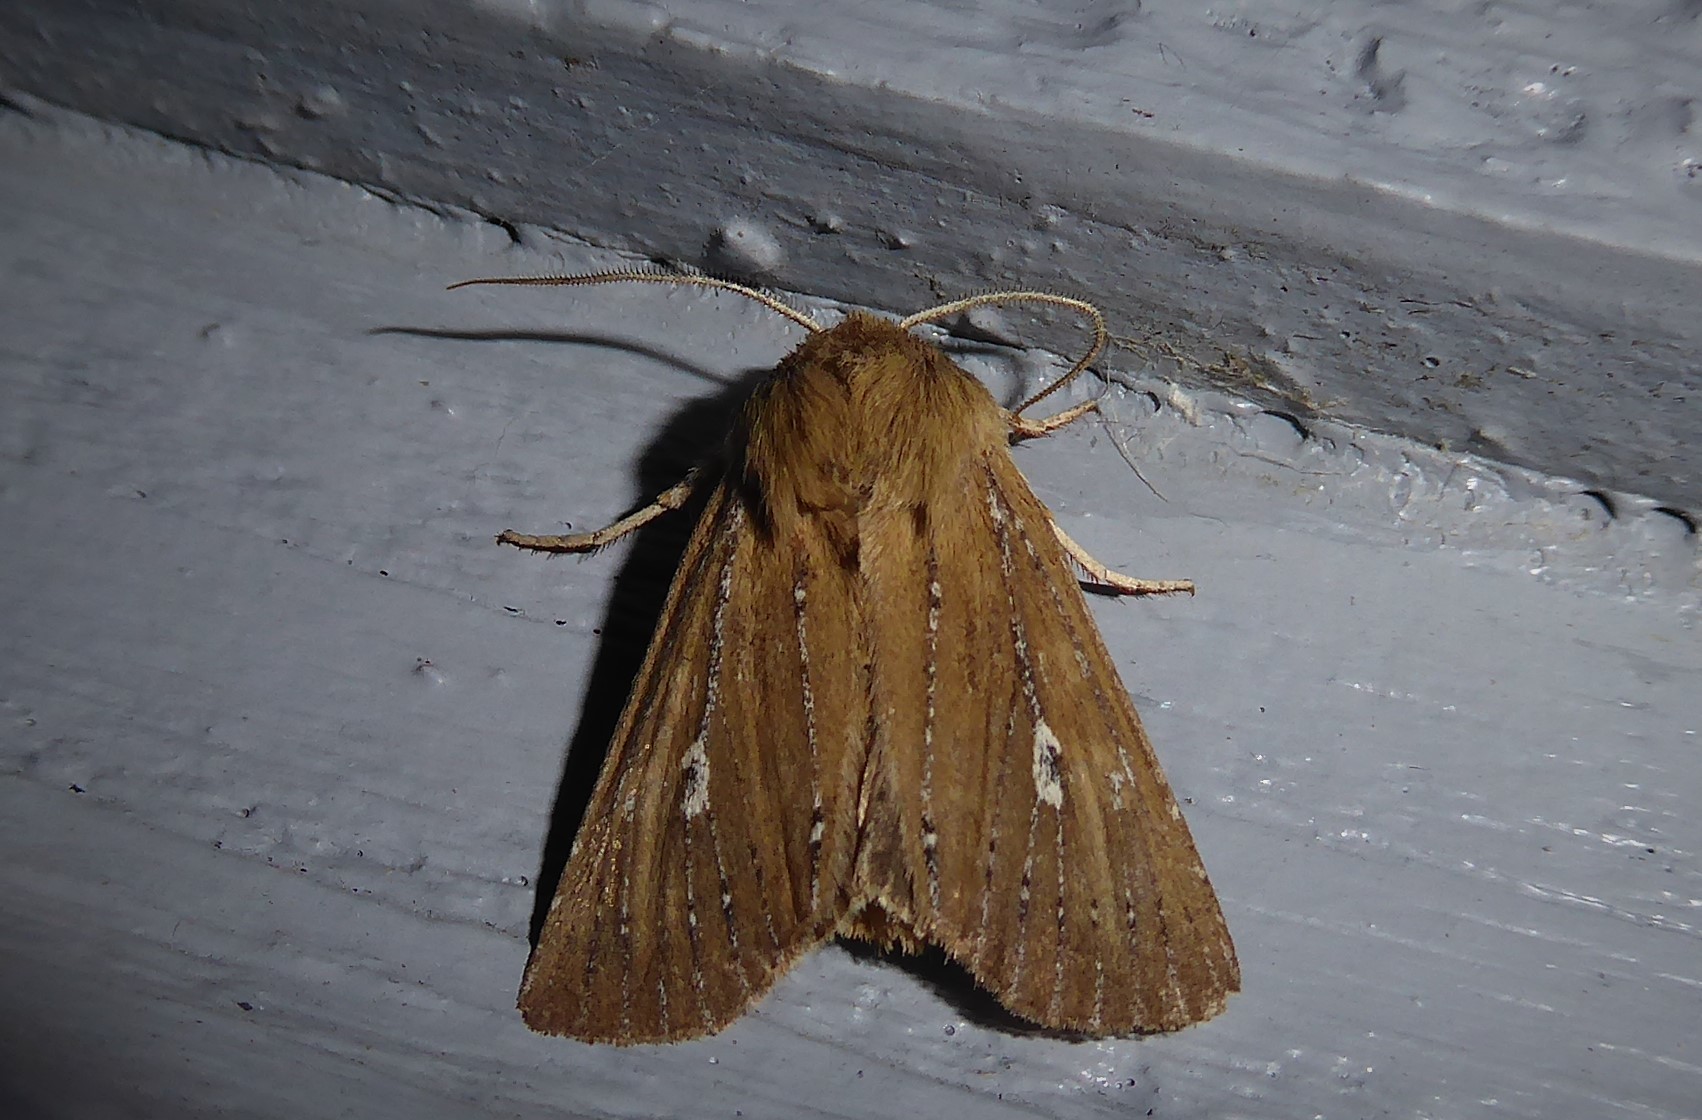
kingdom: Animalia
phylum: Arthropoda
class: Insecta
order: Lepidoptera
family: Noctuidae
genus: Ichneutica
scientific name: Ichneutica
